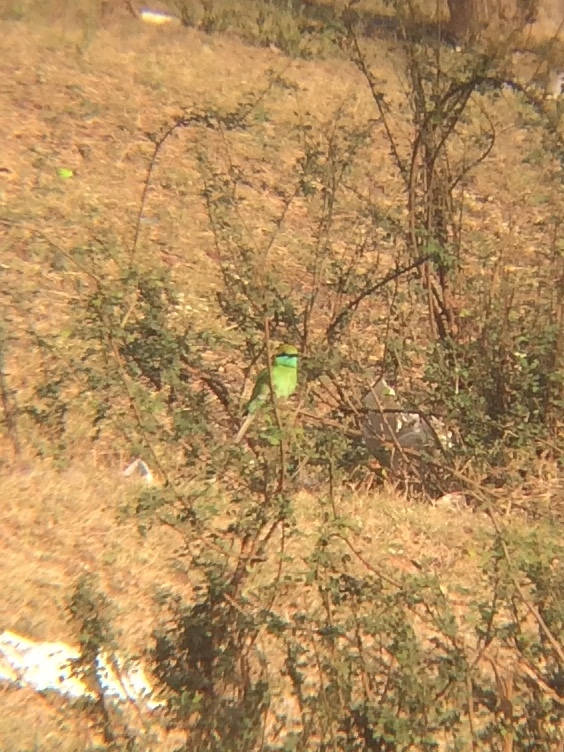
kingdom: Animalia
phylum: Chordata
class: Aves
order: Coraciiformes
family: Meropidae
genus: Merops
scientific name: Merops orientalis
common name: Green bee-eater
